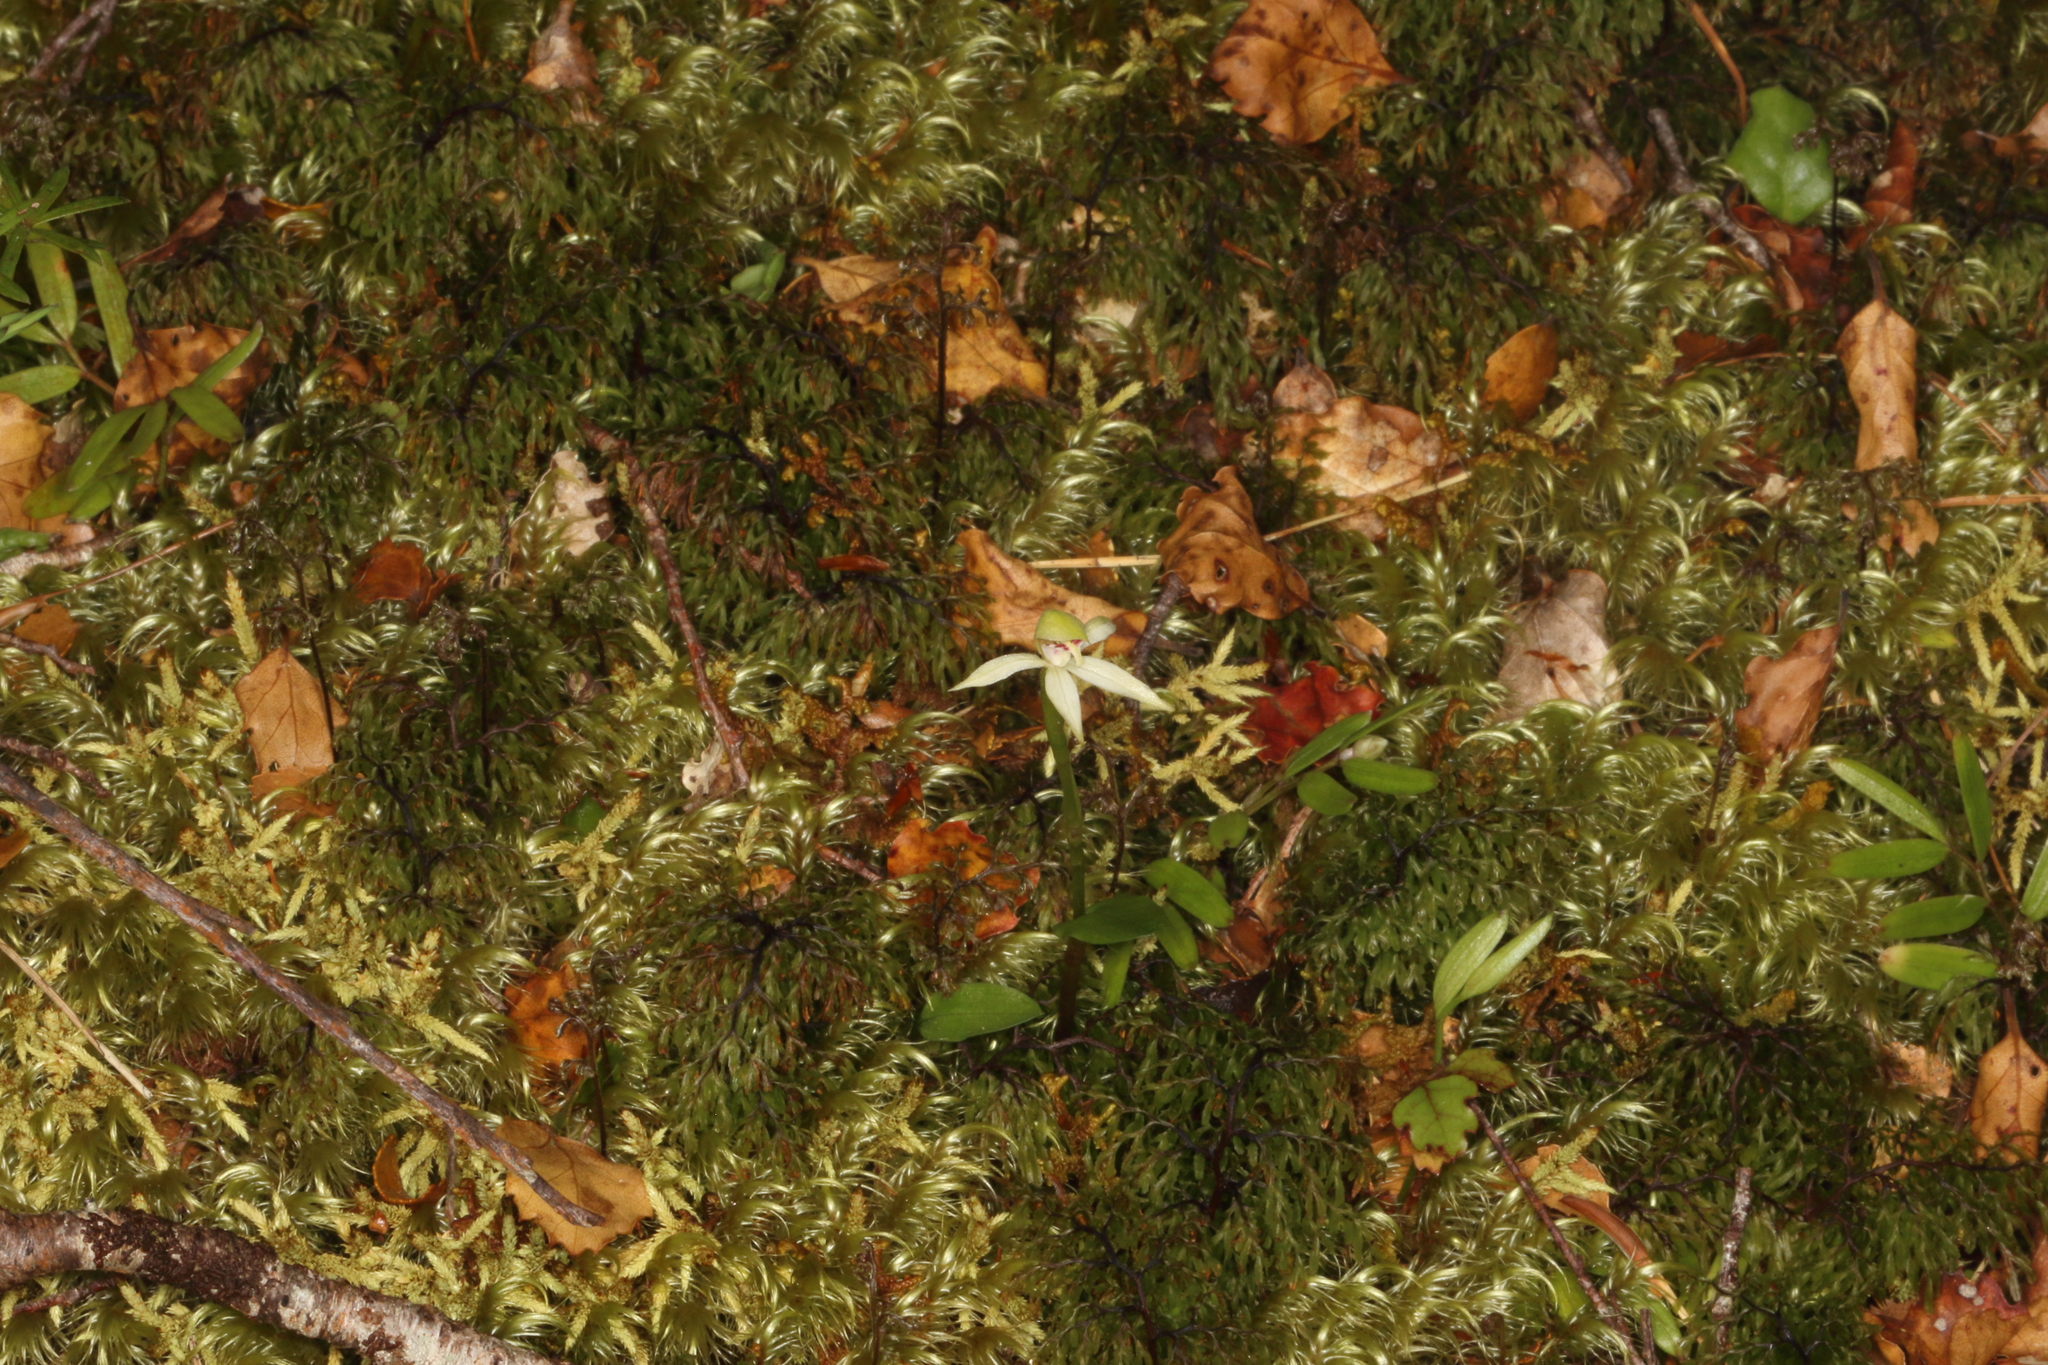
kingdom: Plantae
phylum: Tracheophyta
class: Liliopsida
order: Asparagales
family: Orchidaceae
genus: Adenochilus
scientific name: Adenochilus gracilis
